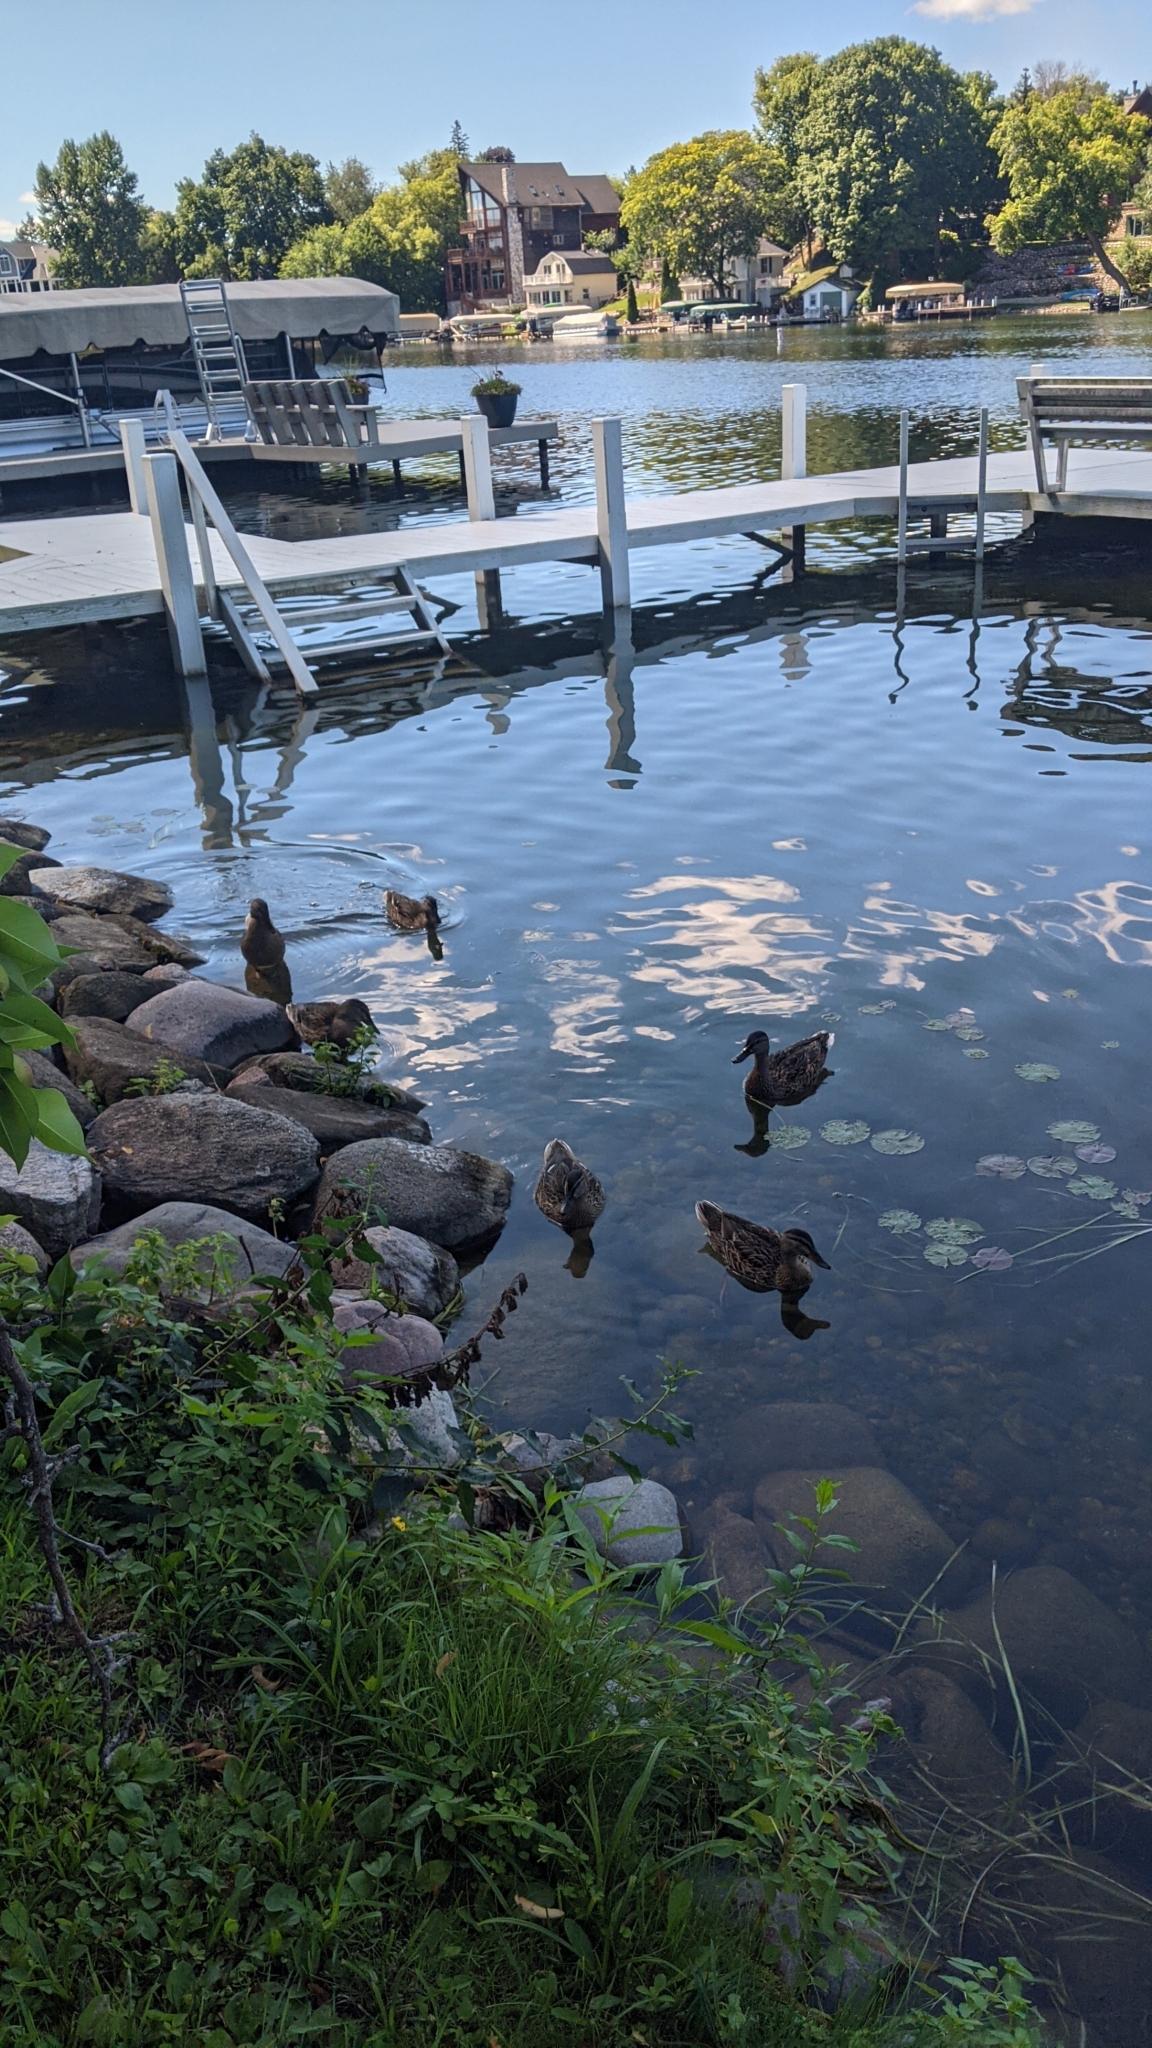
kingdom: Animalia
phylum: Chordata
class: Aves
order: Anseriformes
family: Anatidae
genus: Anas
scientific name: Anas platyrhynchos
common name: Mallard
